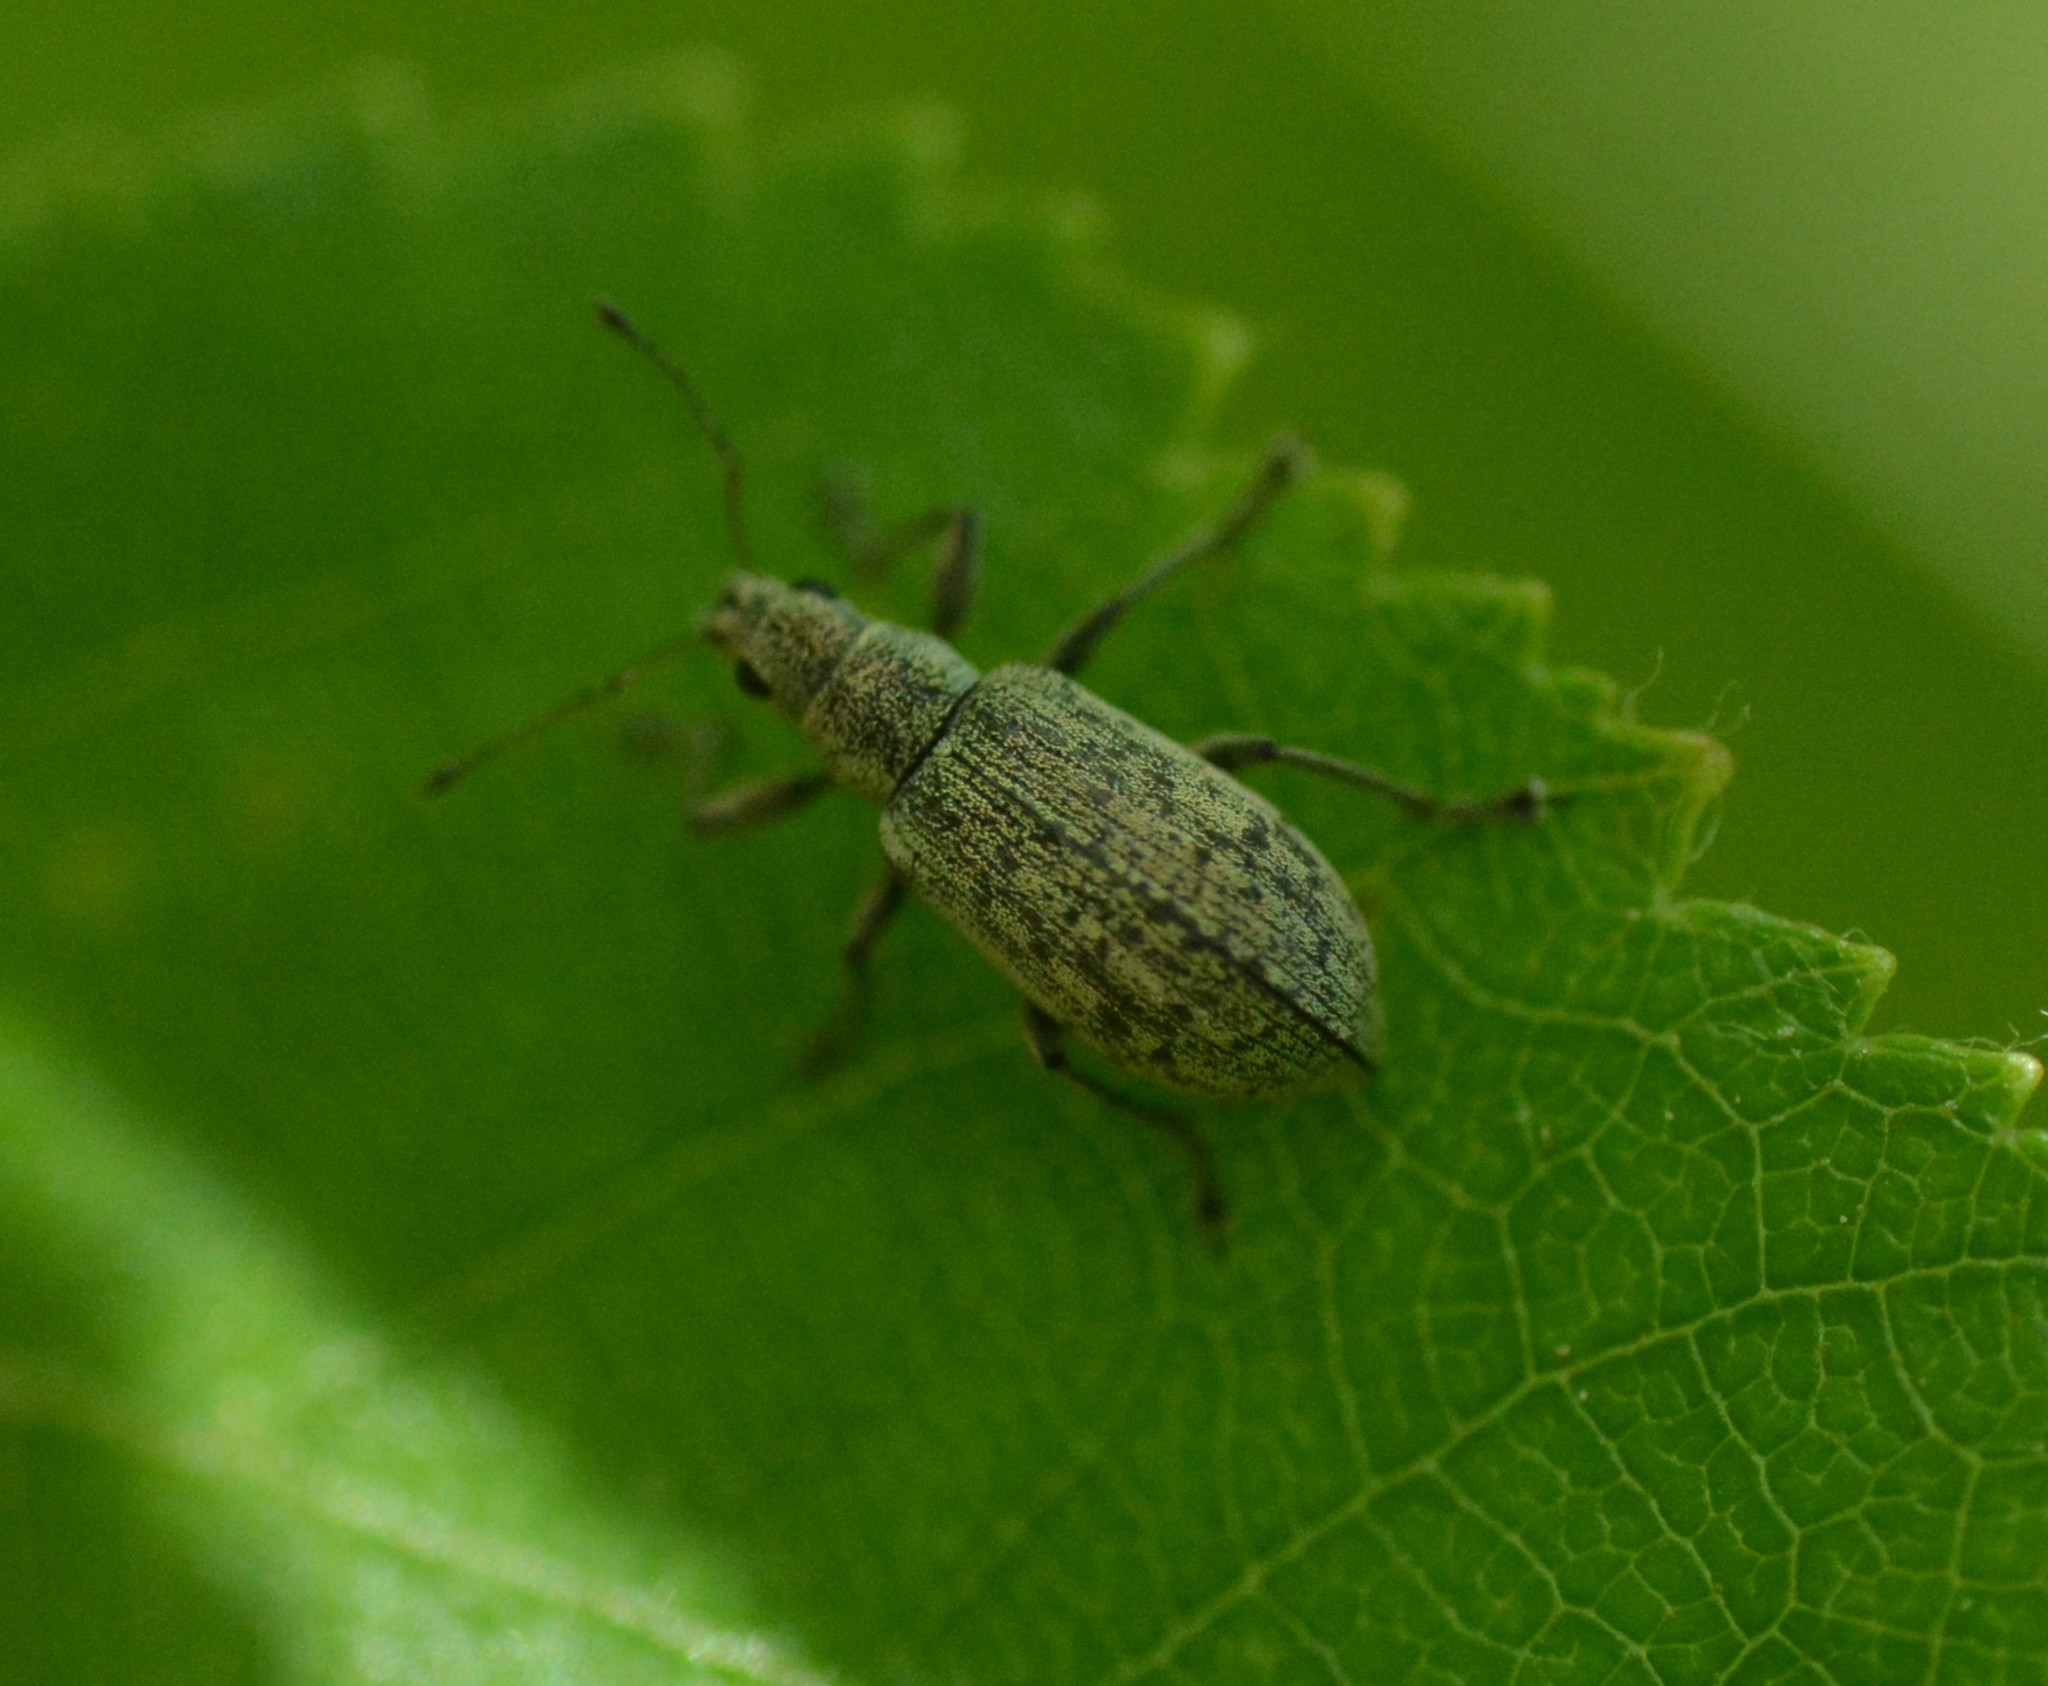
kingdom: Animalia
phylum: Arthropoda
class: Insecta
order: Coleoptera
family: Curculionidae
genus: Polydrusus
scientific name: Polydrusus cervinus
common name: Weevil
